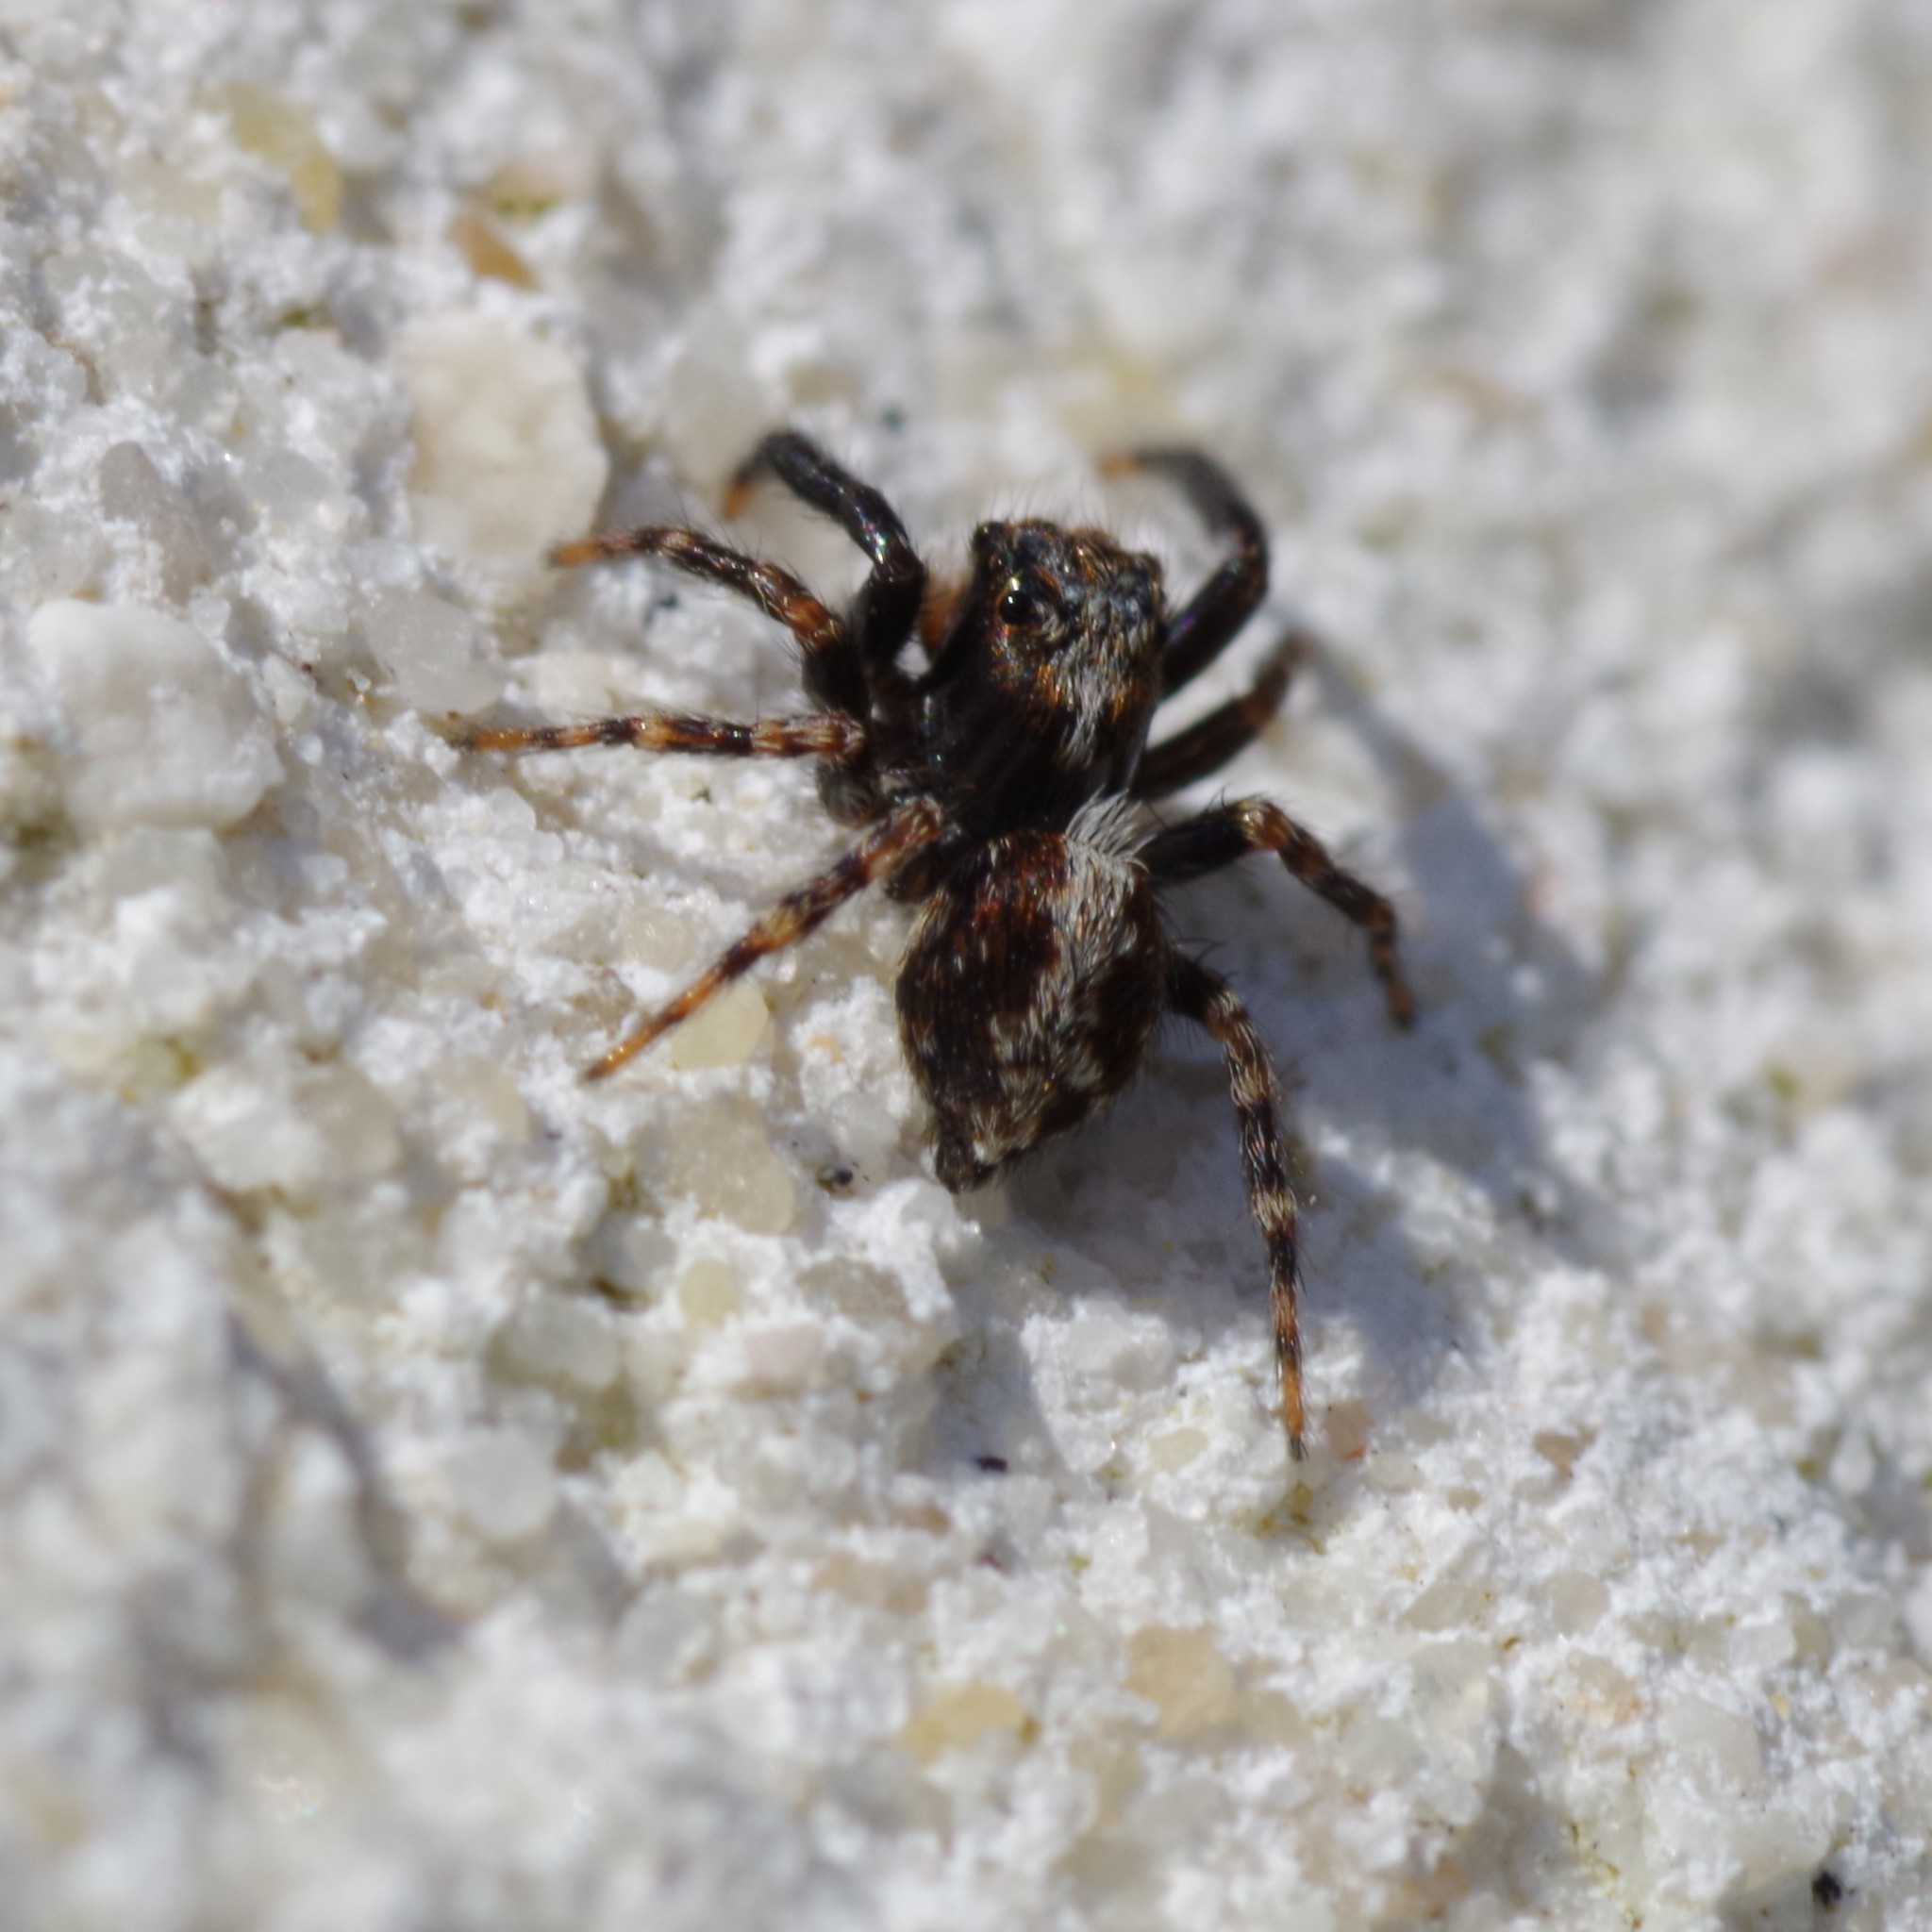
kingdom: Animalia
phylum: Arthropoda
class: Arachnida
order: Araneae
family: Salticidae
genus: Pseudeuophrys
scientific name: Pseudeuophrys lanigera
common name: Jumping spider
